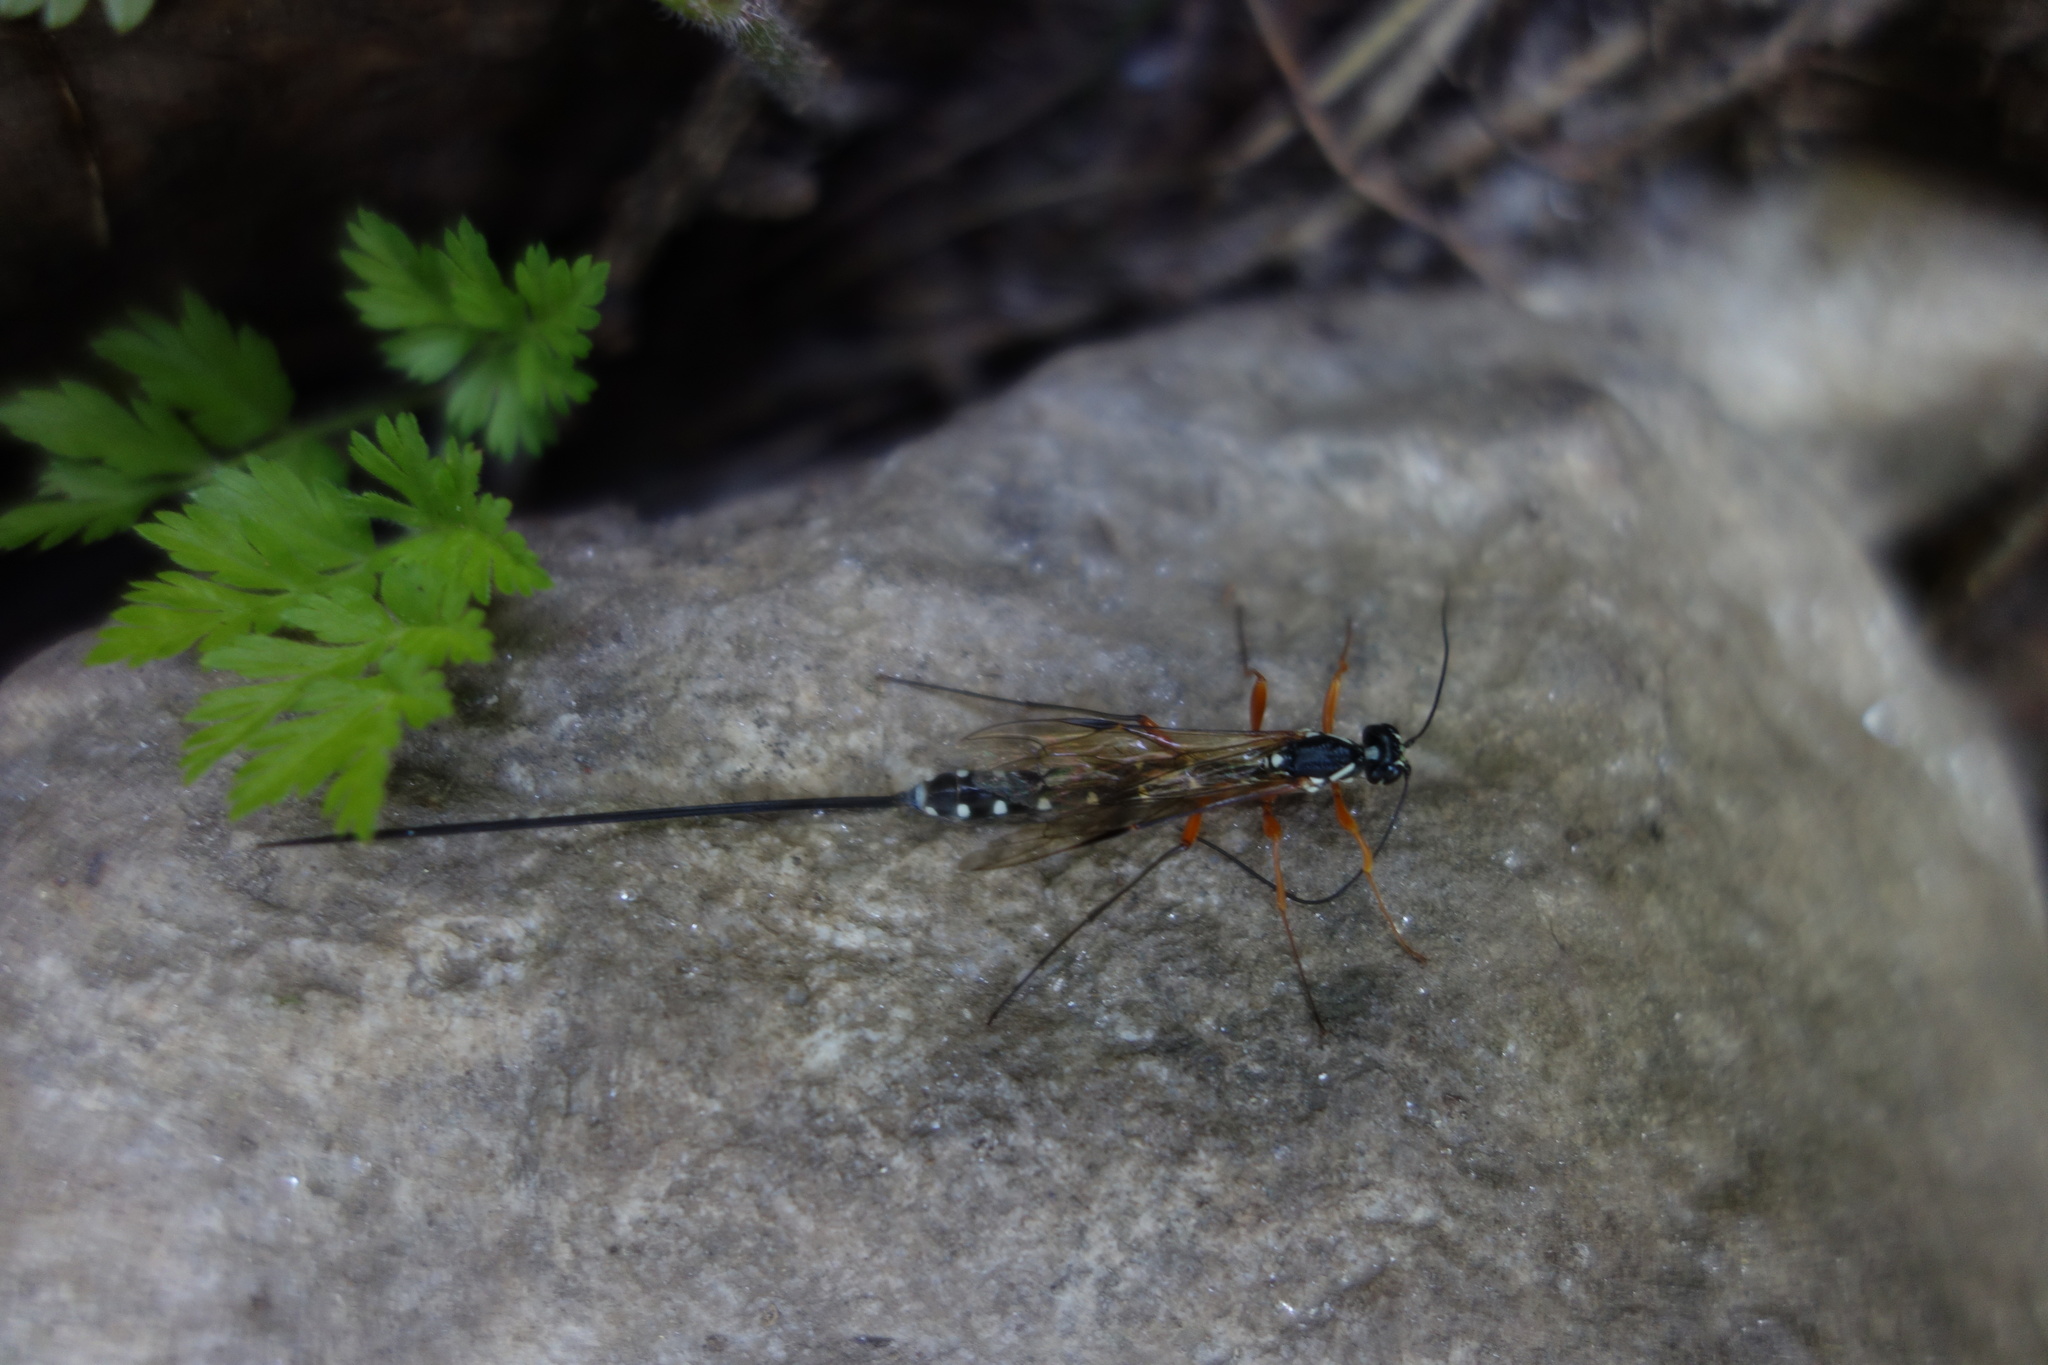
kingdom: Animalia
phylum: Arthropoda
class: Insecta
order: Hymenoptera
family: Ichneumonidae
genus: Rhyssa
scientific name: Rhyssa persuasoria
